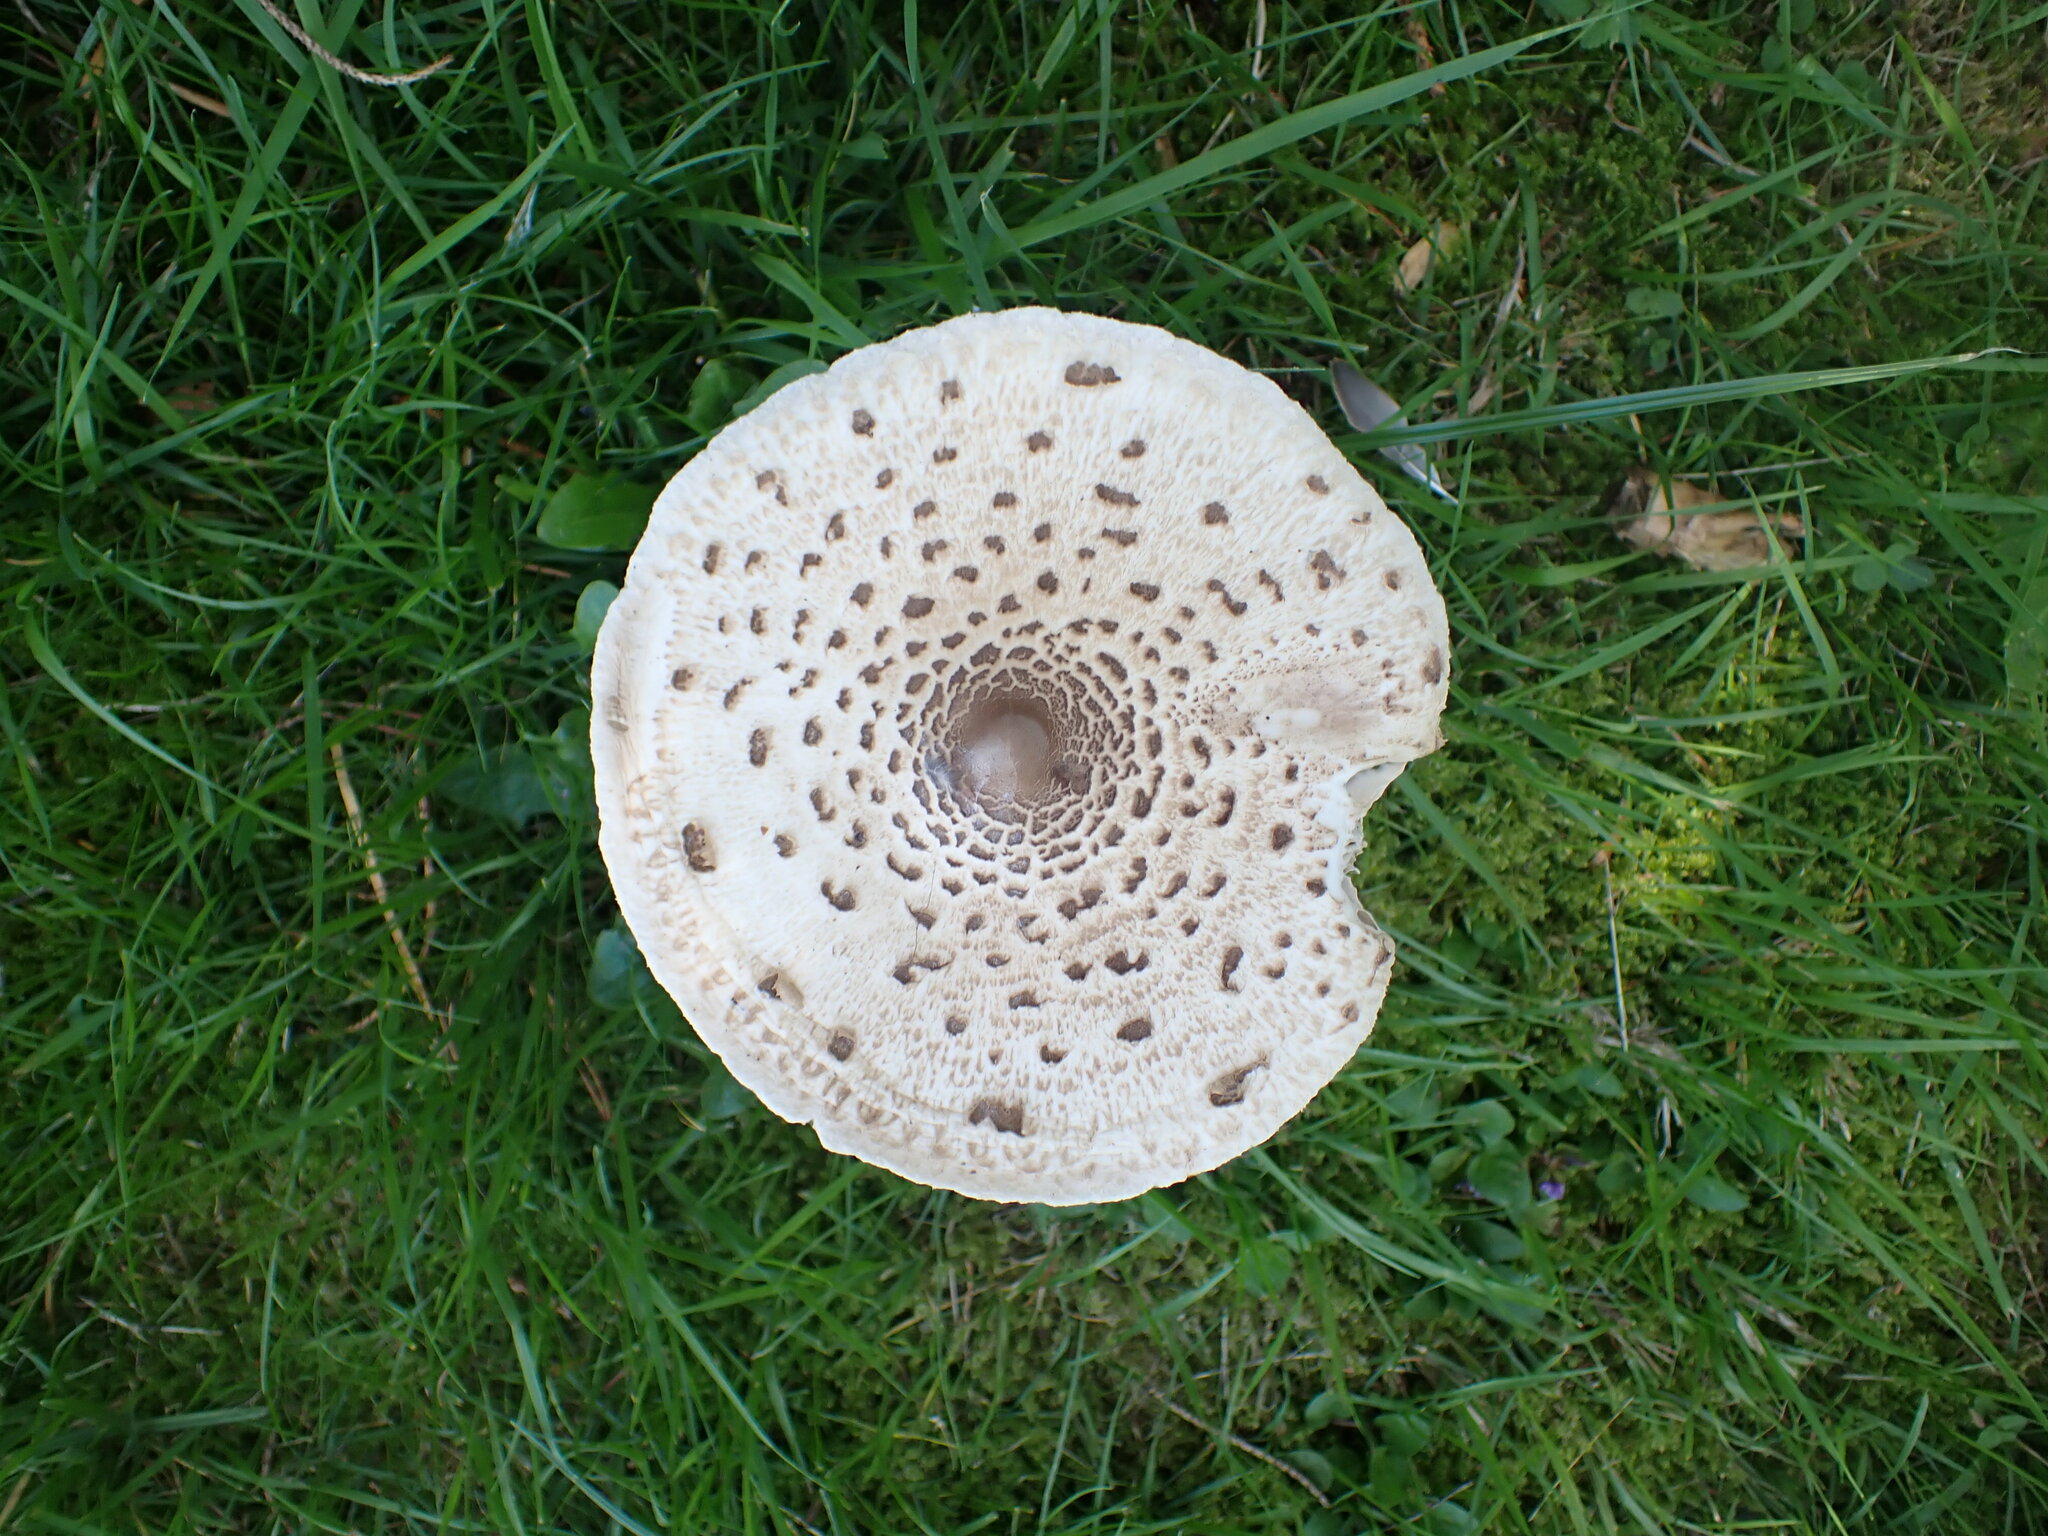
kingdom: Fungi
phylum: Basidiomycota
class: Agaricomycetes
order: Agaricales
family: Agaricaceae
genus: Macrolepiota
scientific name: Macrolepiota procera
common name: Parasol
